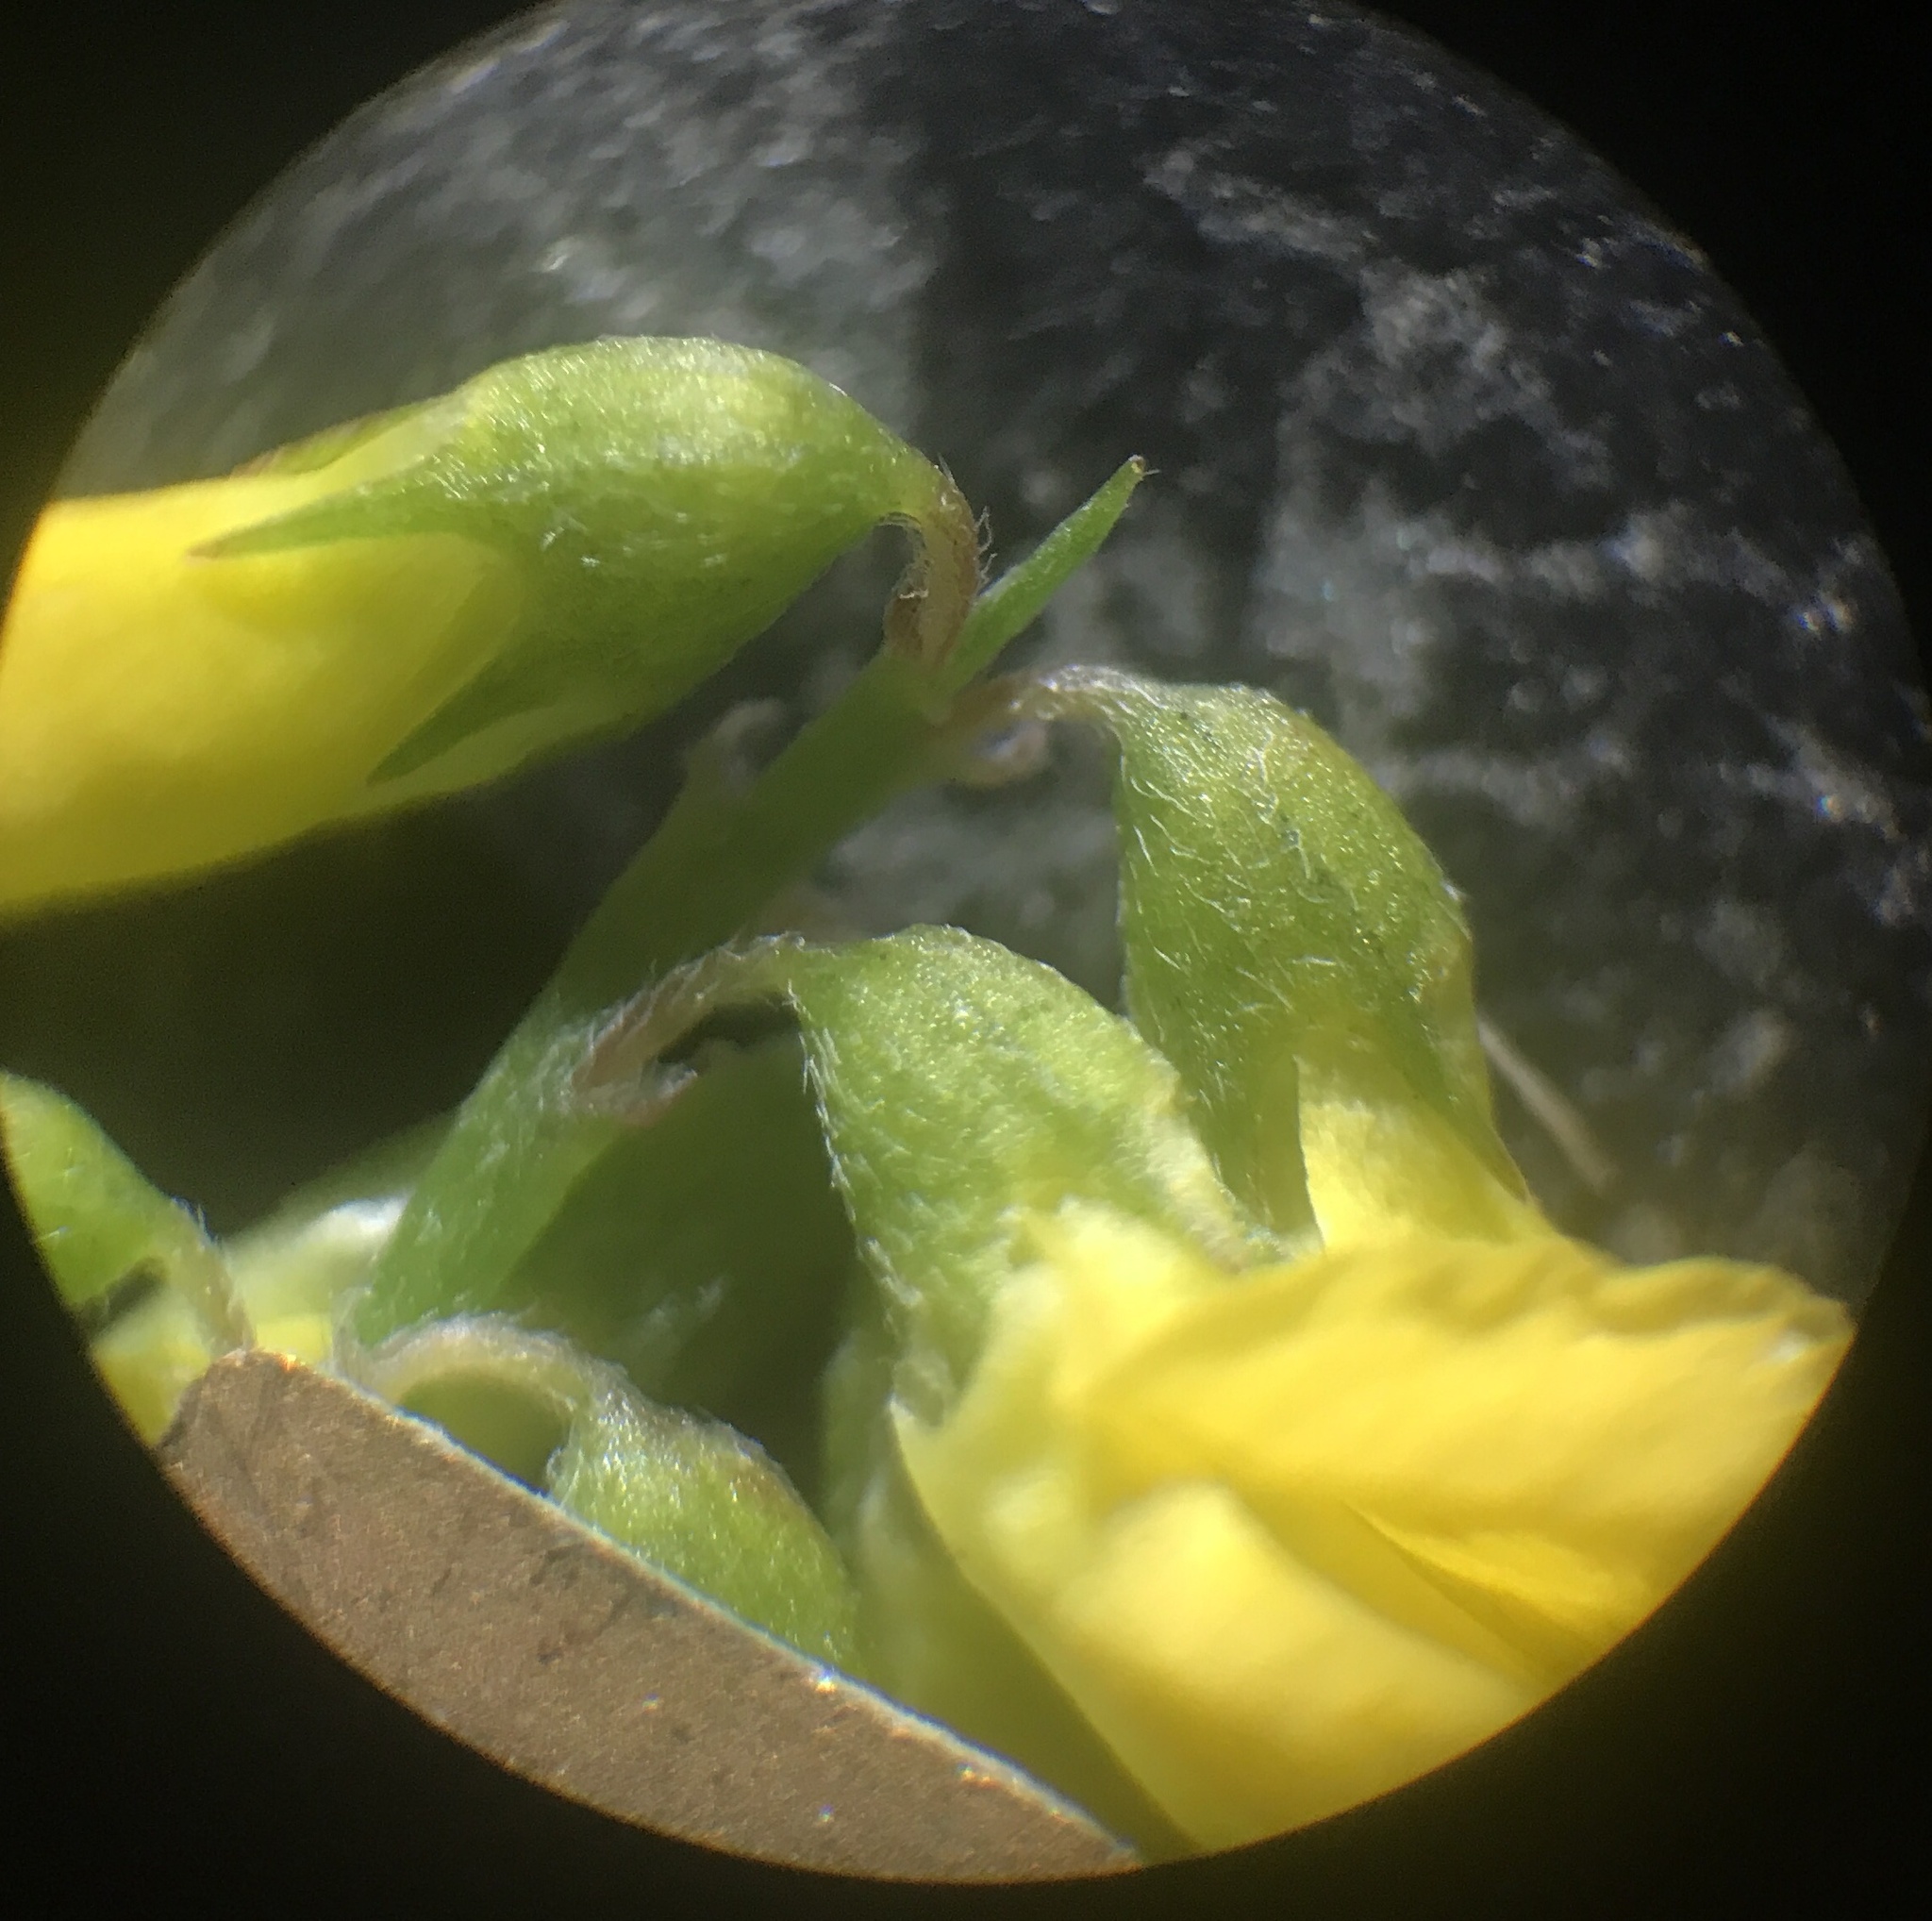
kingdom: Plantae
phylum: Tracheophyta
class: Magnoliopsida
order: Fabales
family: Fabaceae
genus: Melilotus
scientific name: Melilotus altissimus
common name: Tall melilot
